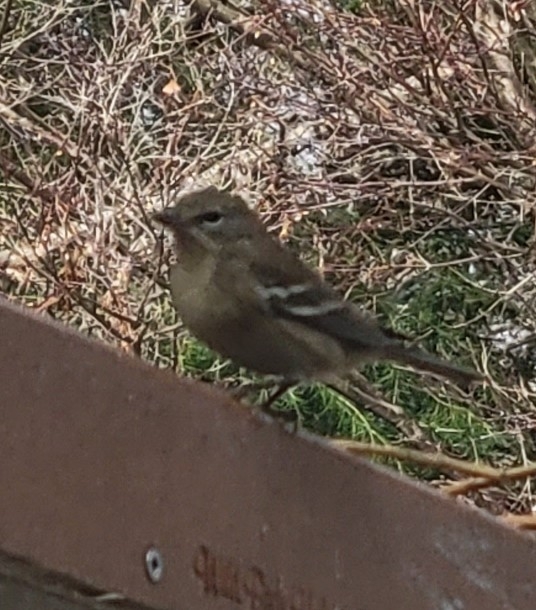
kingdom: Animalia
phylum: Chordata
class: Aves
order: Passeriformes
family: Parulidae
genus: Setophaga
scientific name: Setophaga pinus
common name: Pine warbler
